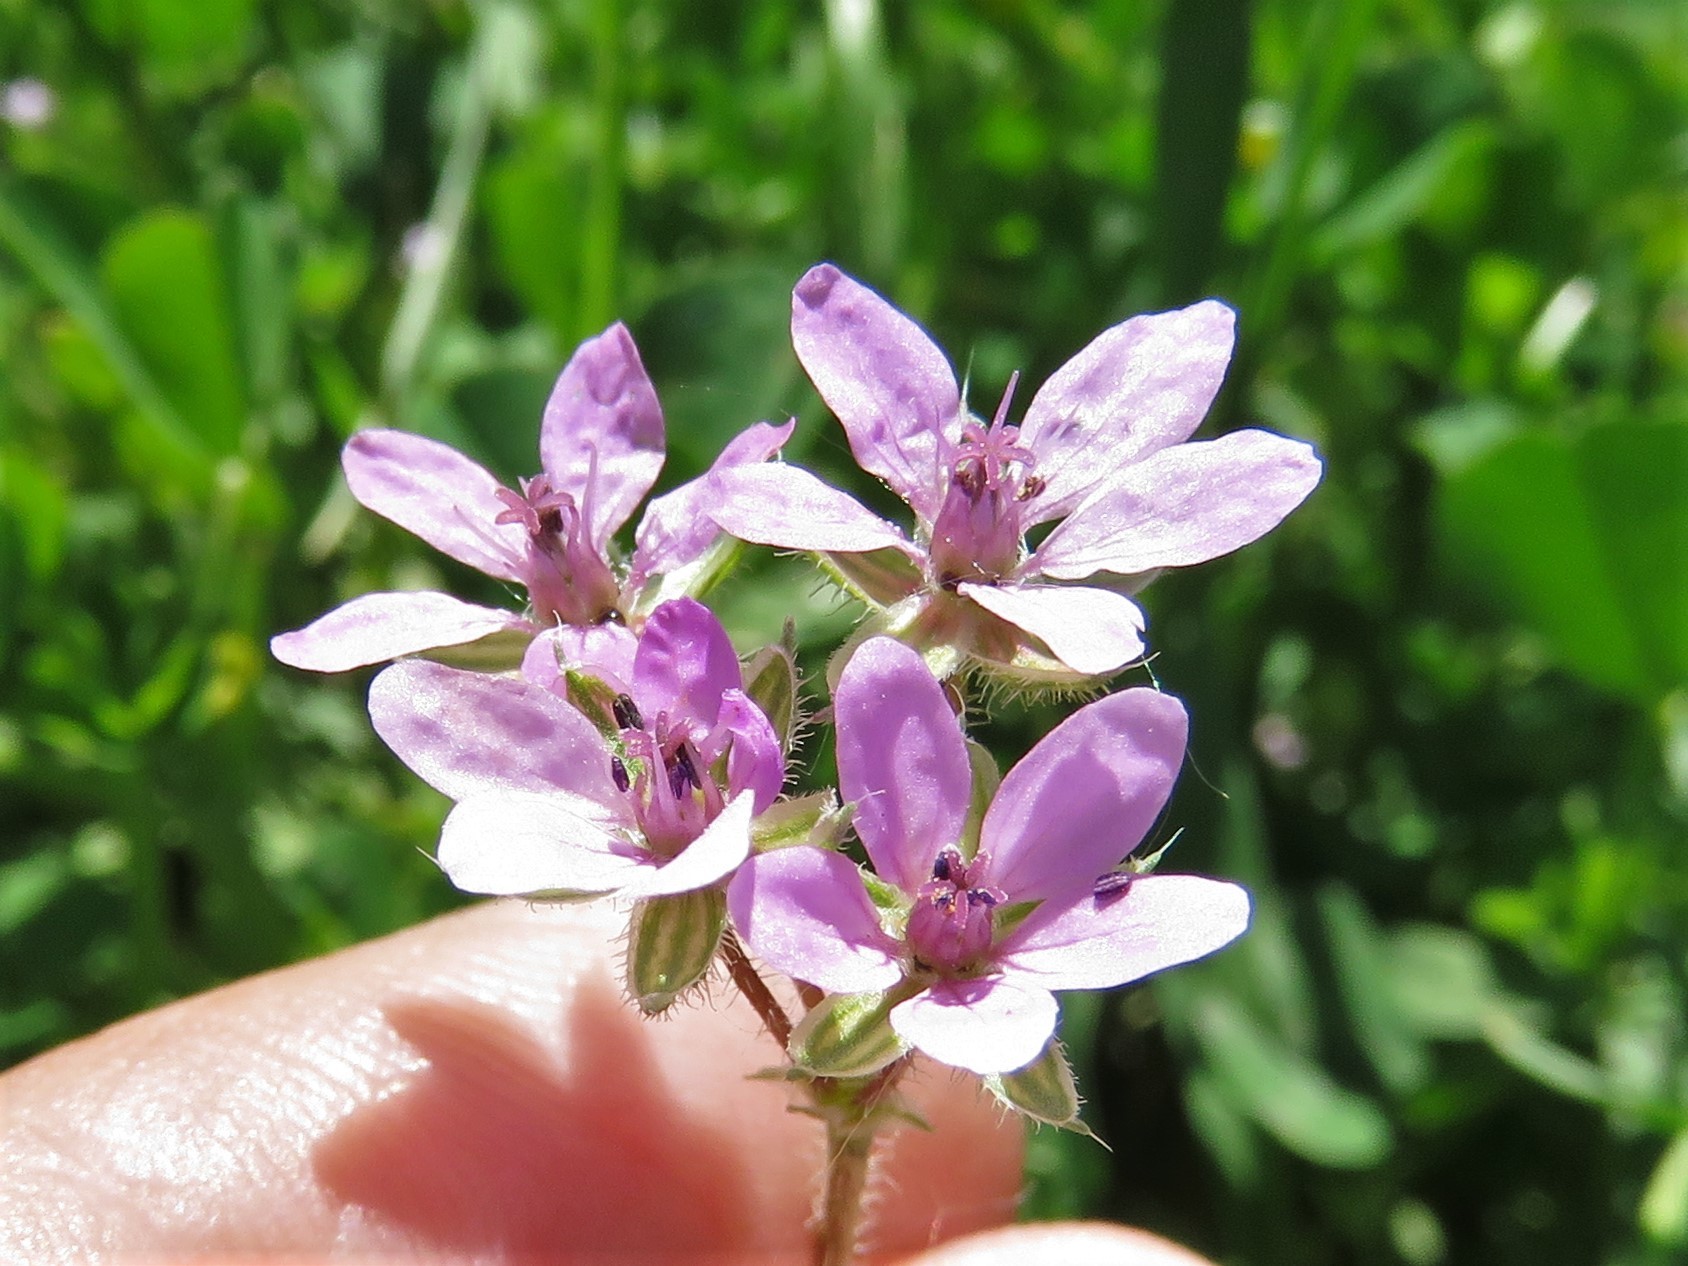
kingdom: Plantae
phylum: Tracheophyta
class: Magnoliopsida
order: Geraniales
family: Geraniaceae
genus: Erodium
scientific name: Erodium cicutarium
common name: Common stork's-bill
